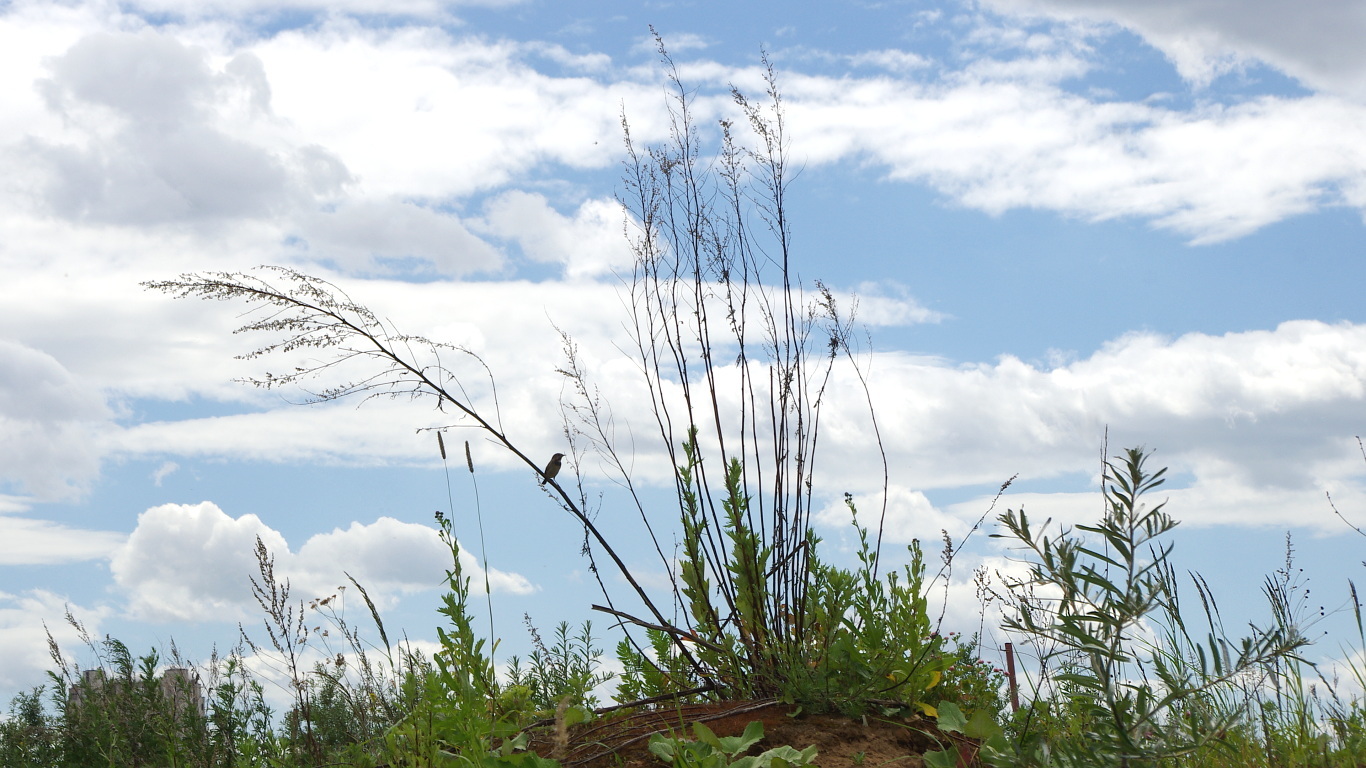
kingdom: Animalia
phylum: Chordata
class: Aves
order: Passeriformes
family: Muscicapidae
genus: Luscinia
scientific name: Luscinia svecica
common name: Bluethroat
